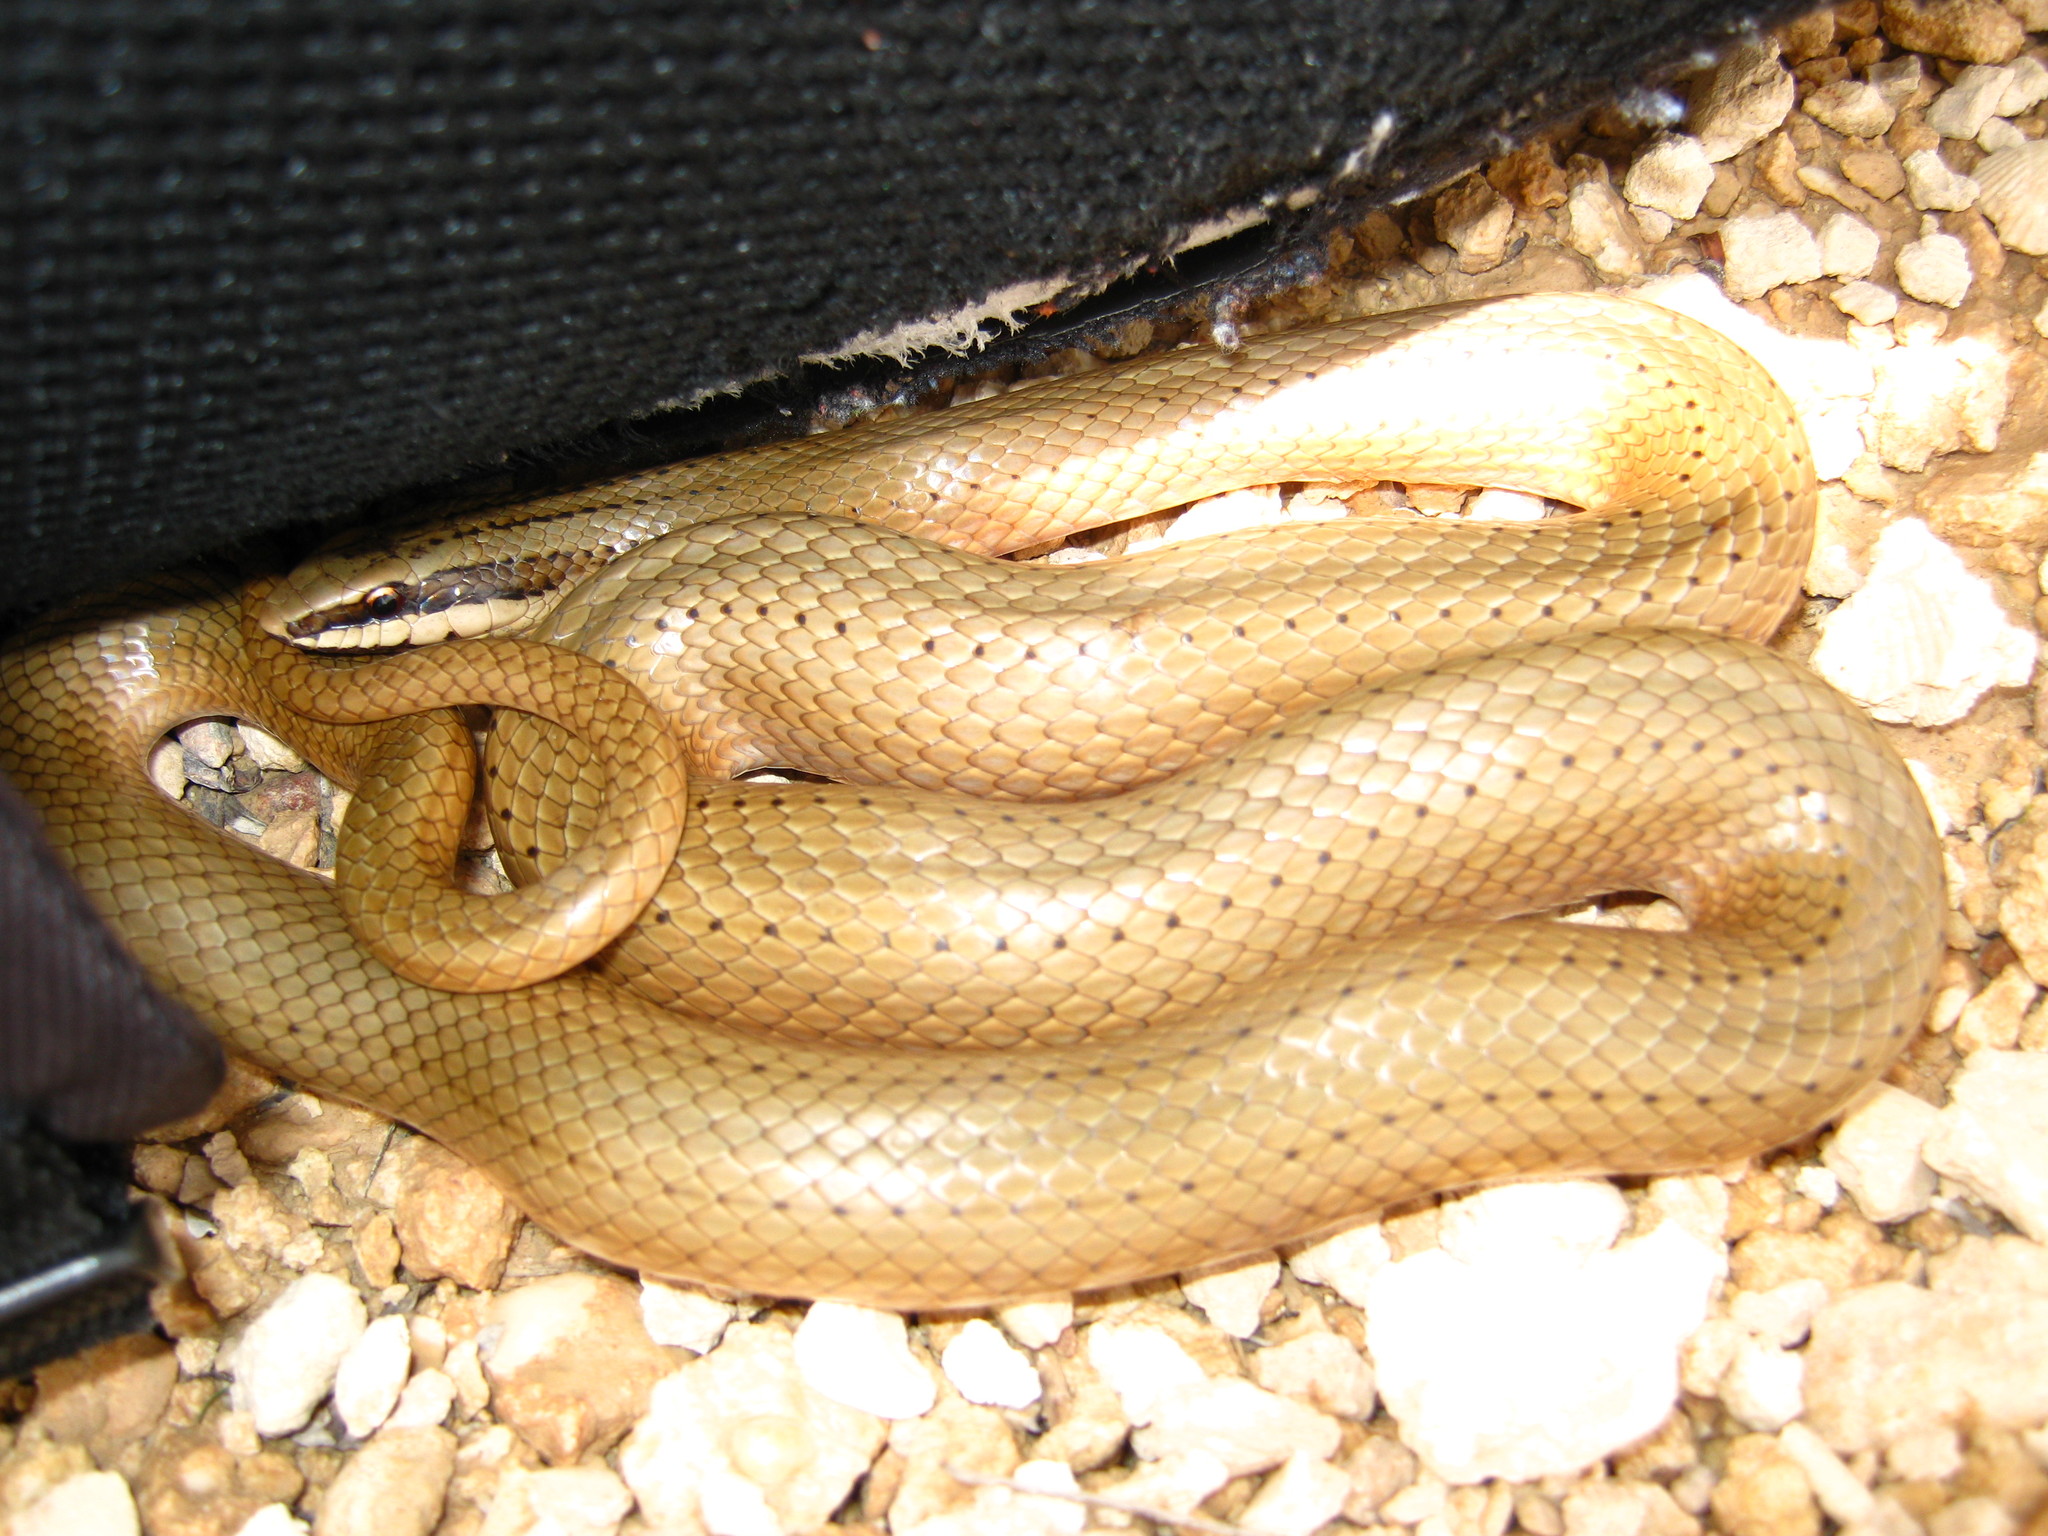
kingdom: Animalia
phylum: Chordata
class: Squamata
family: Colubridae
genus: Conophis
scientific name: Conophis lineatus
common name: Road guarder
